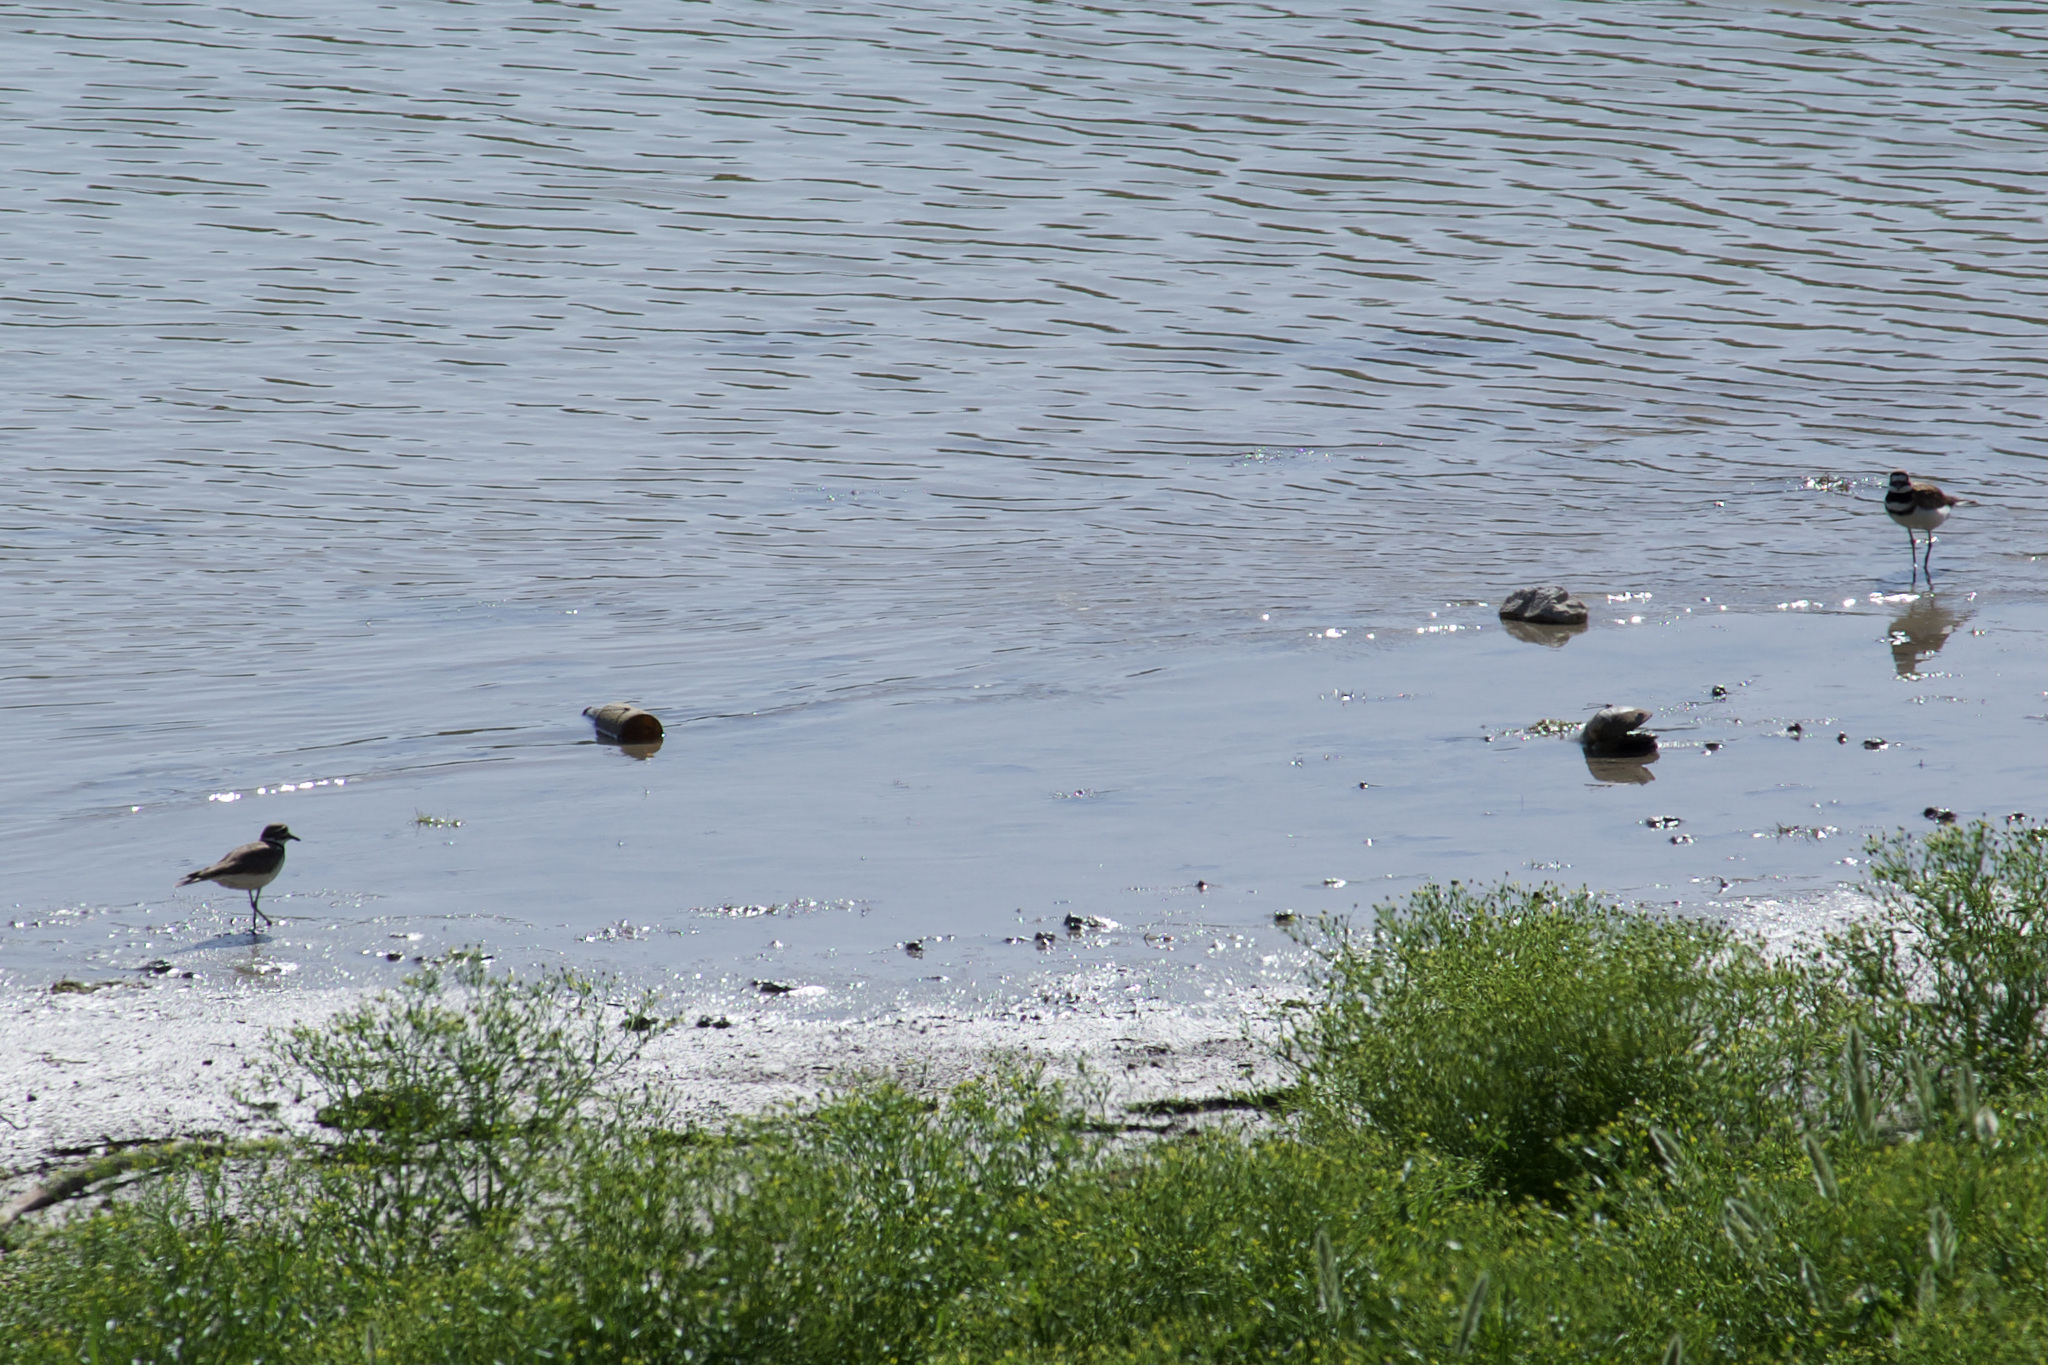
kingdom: Animalia
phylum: Chordata
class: Aves
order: Charadriiformes
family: Charadriidae
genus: Charadrius
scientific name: Charadrius vociferus
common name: Killdeer
